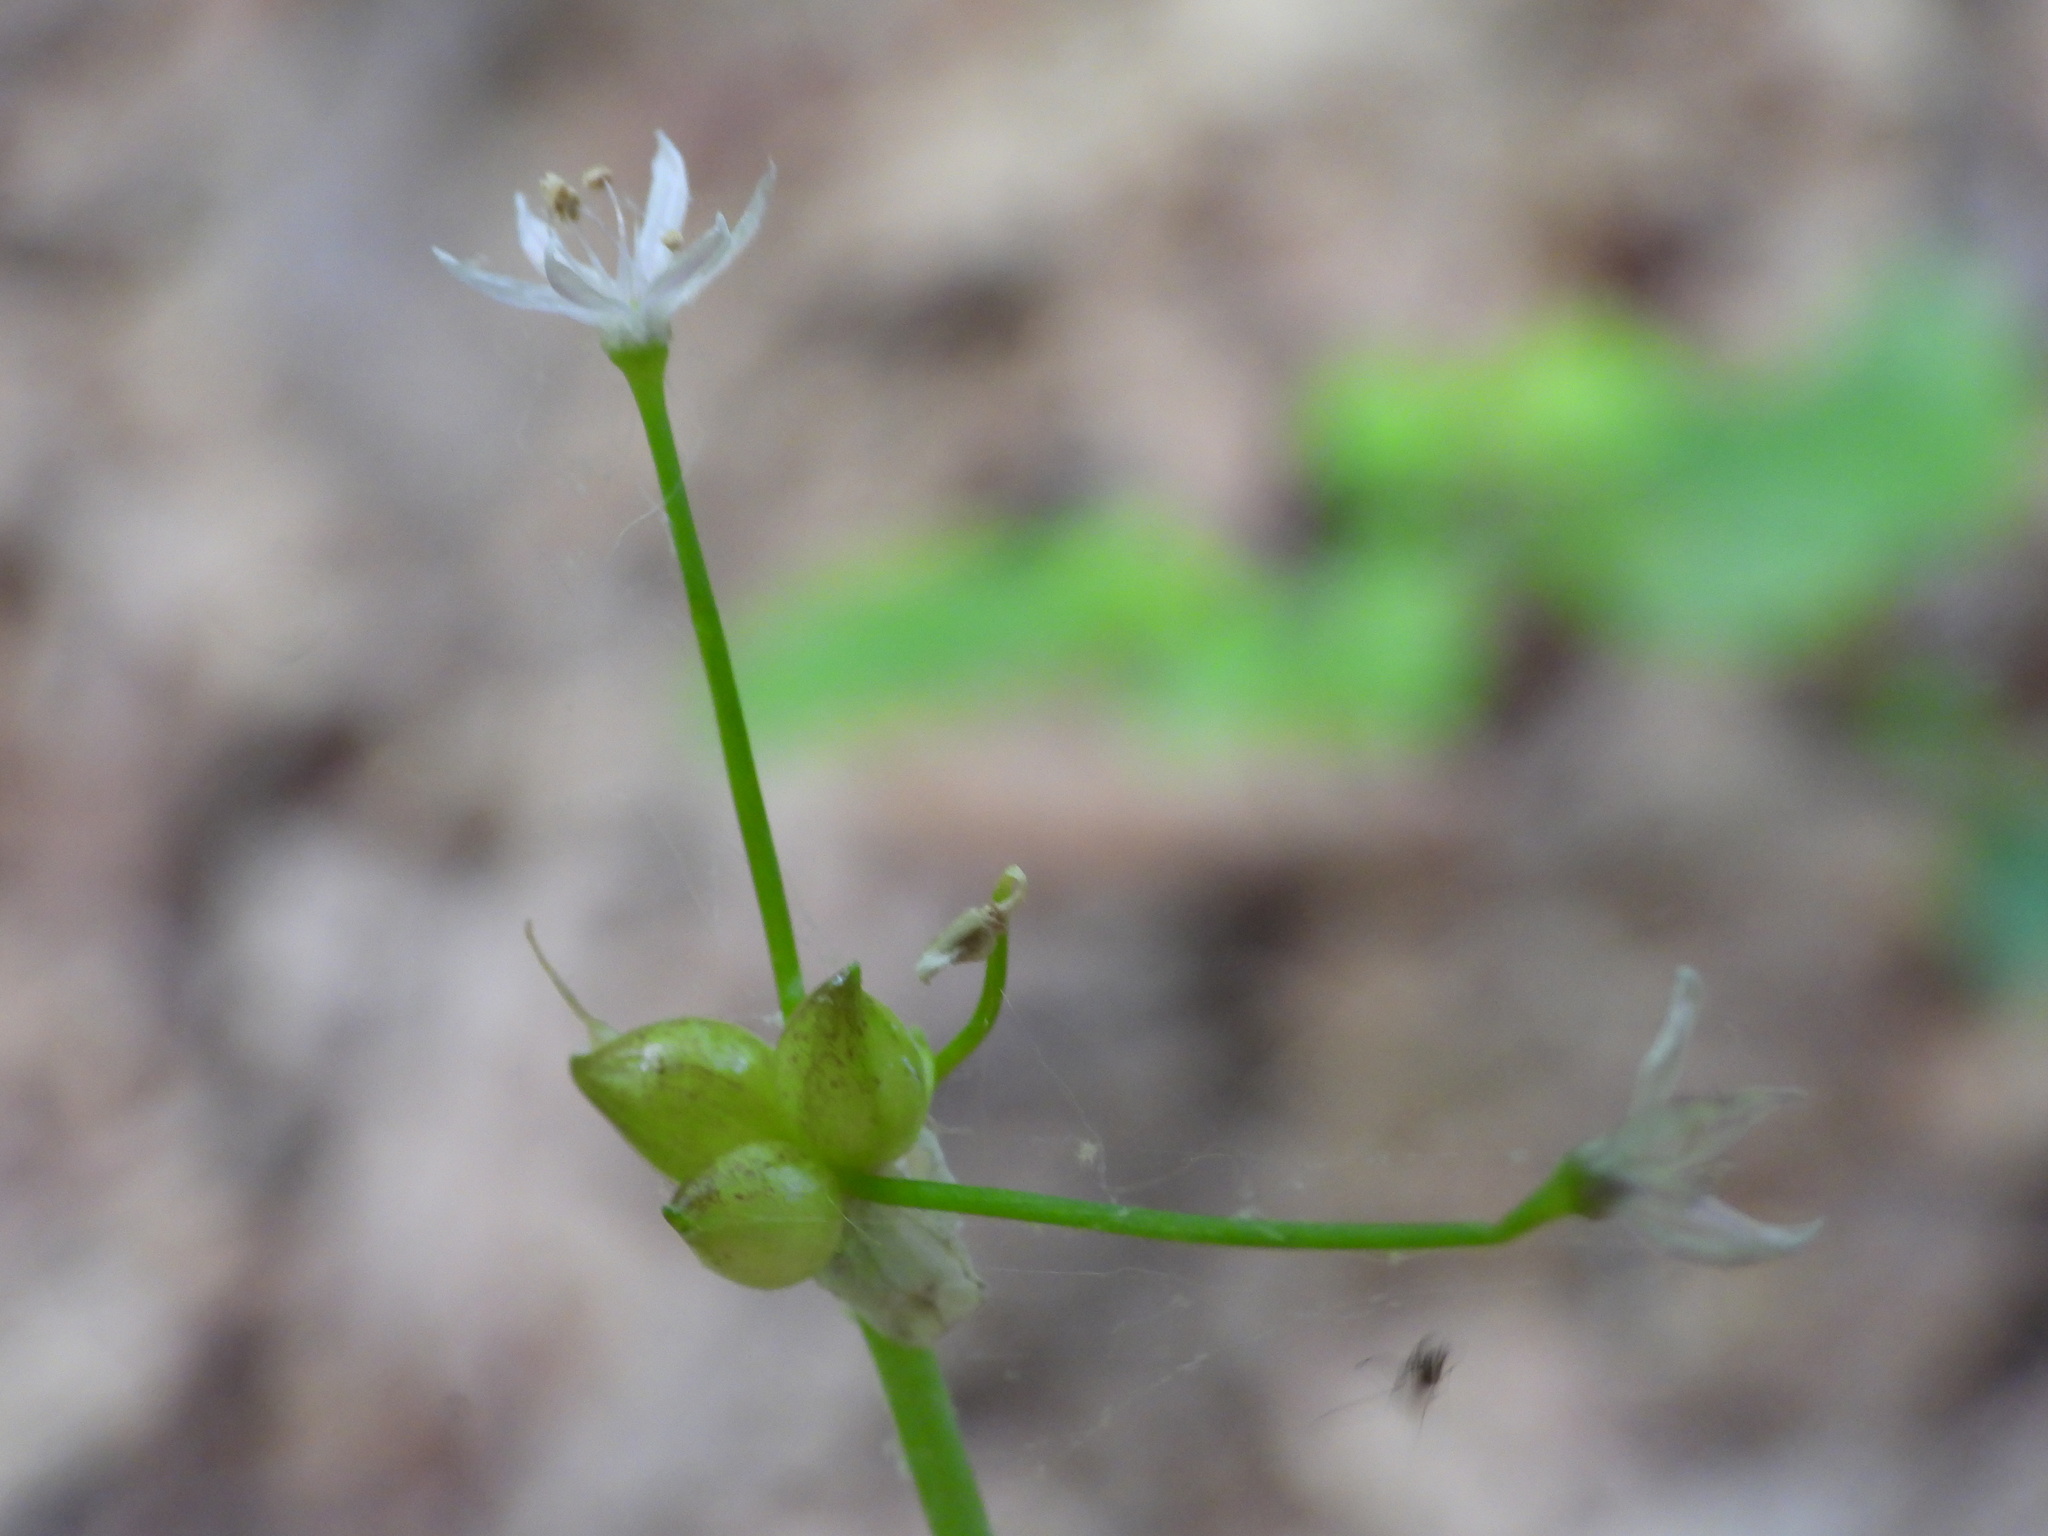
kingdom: Plantae
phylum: Tracheophyta
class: Liliopsida
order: Asparagales
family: Amaryllidaceae
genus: Allium
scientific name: Allium canadense
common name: Meadow garlic
